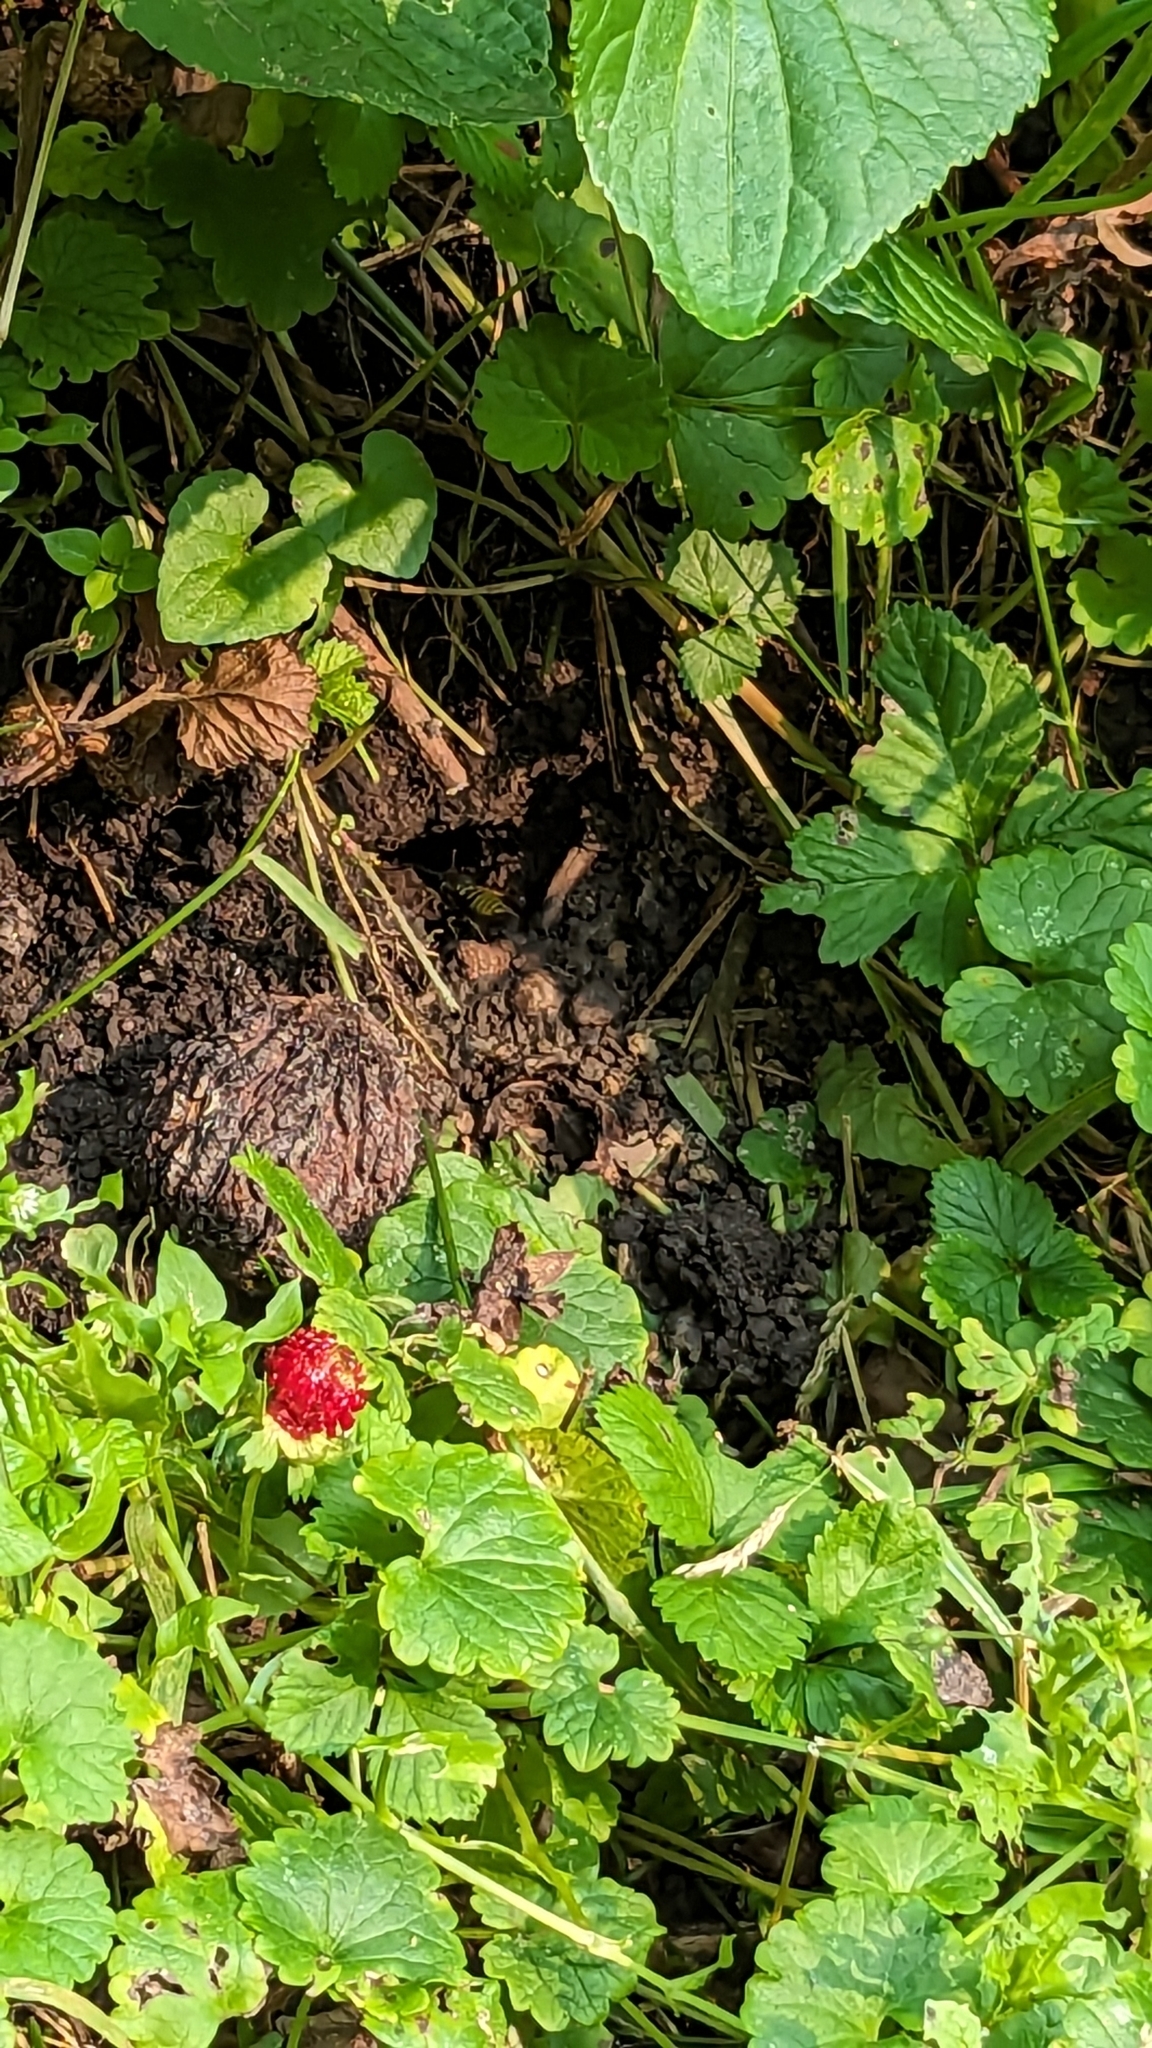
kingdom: Animalia
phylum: Arthropoda
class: Insecta
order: Hymenoptera
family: Vespidae
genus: Vespula
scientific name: Vespula maculifrons
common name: Eastern yellowjacket
